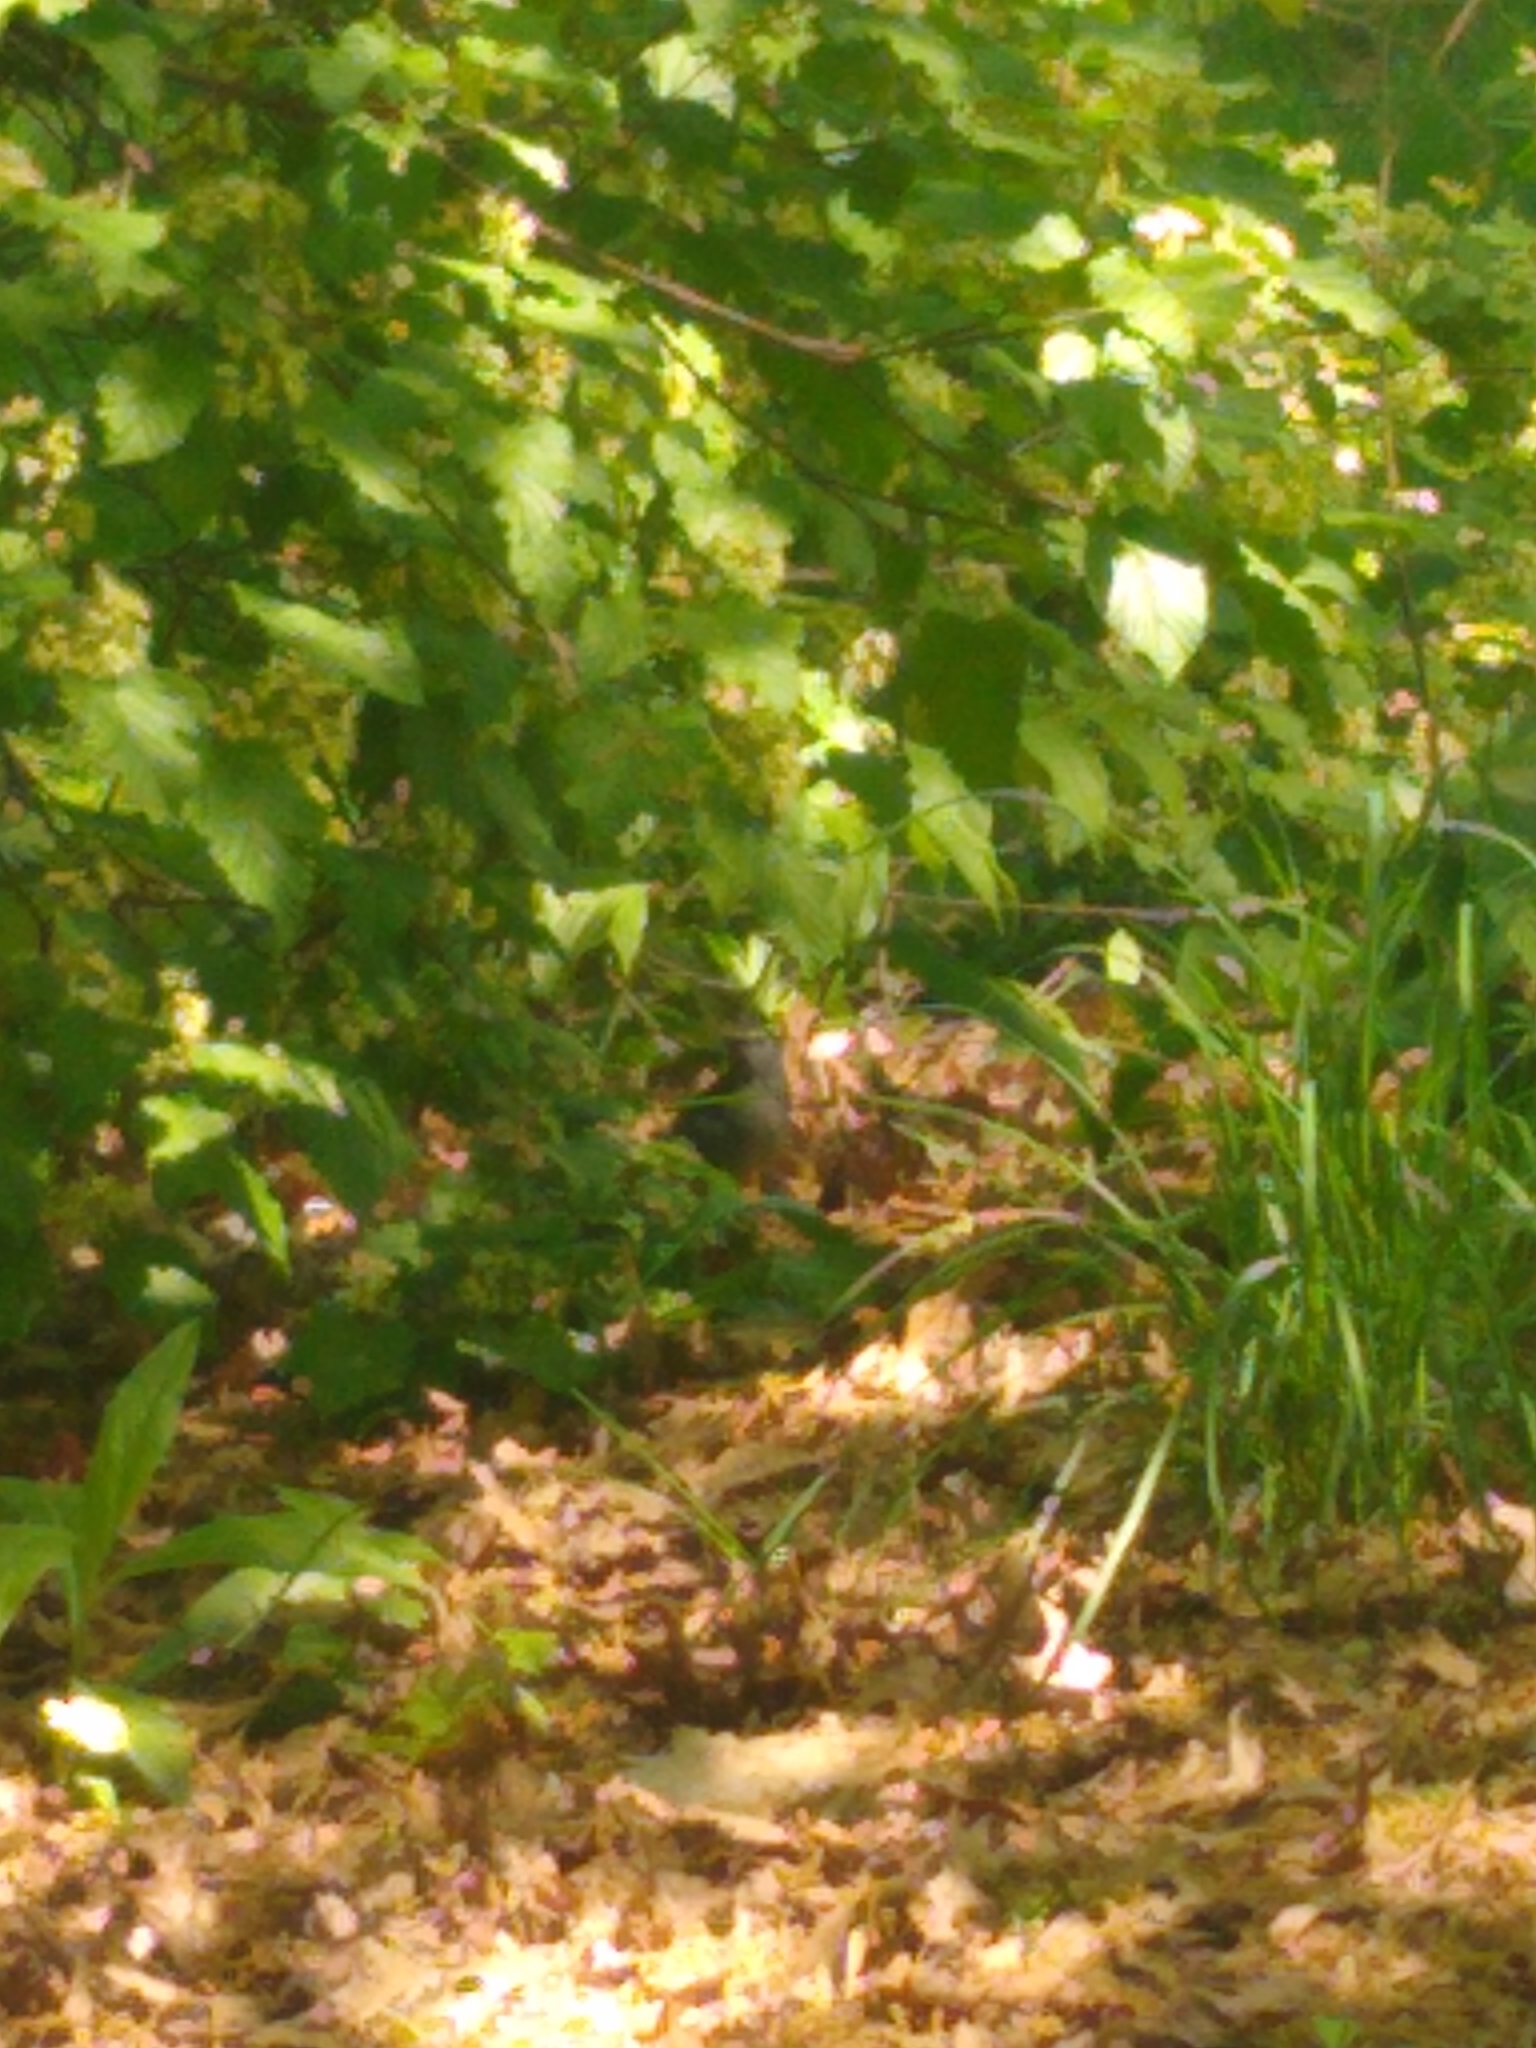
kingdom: Animalia
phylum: Chordata
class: Aves
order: Passeriformes
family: Mimidae
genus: Dumetella
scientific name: Dumetella carolinensis
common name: Gray catbird
